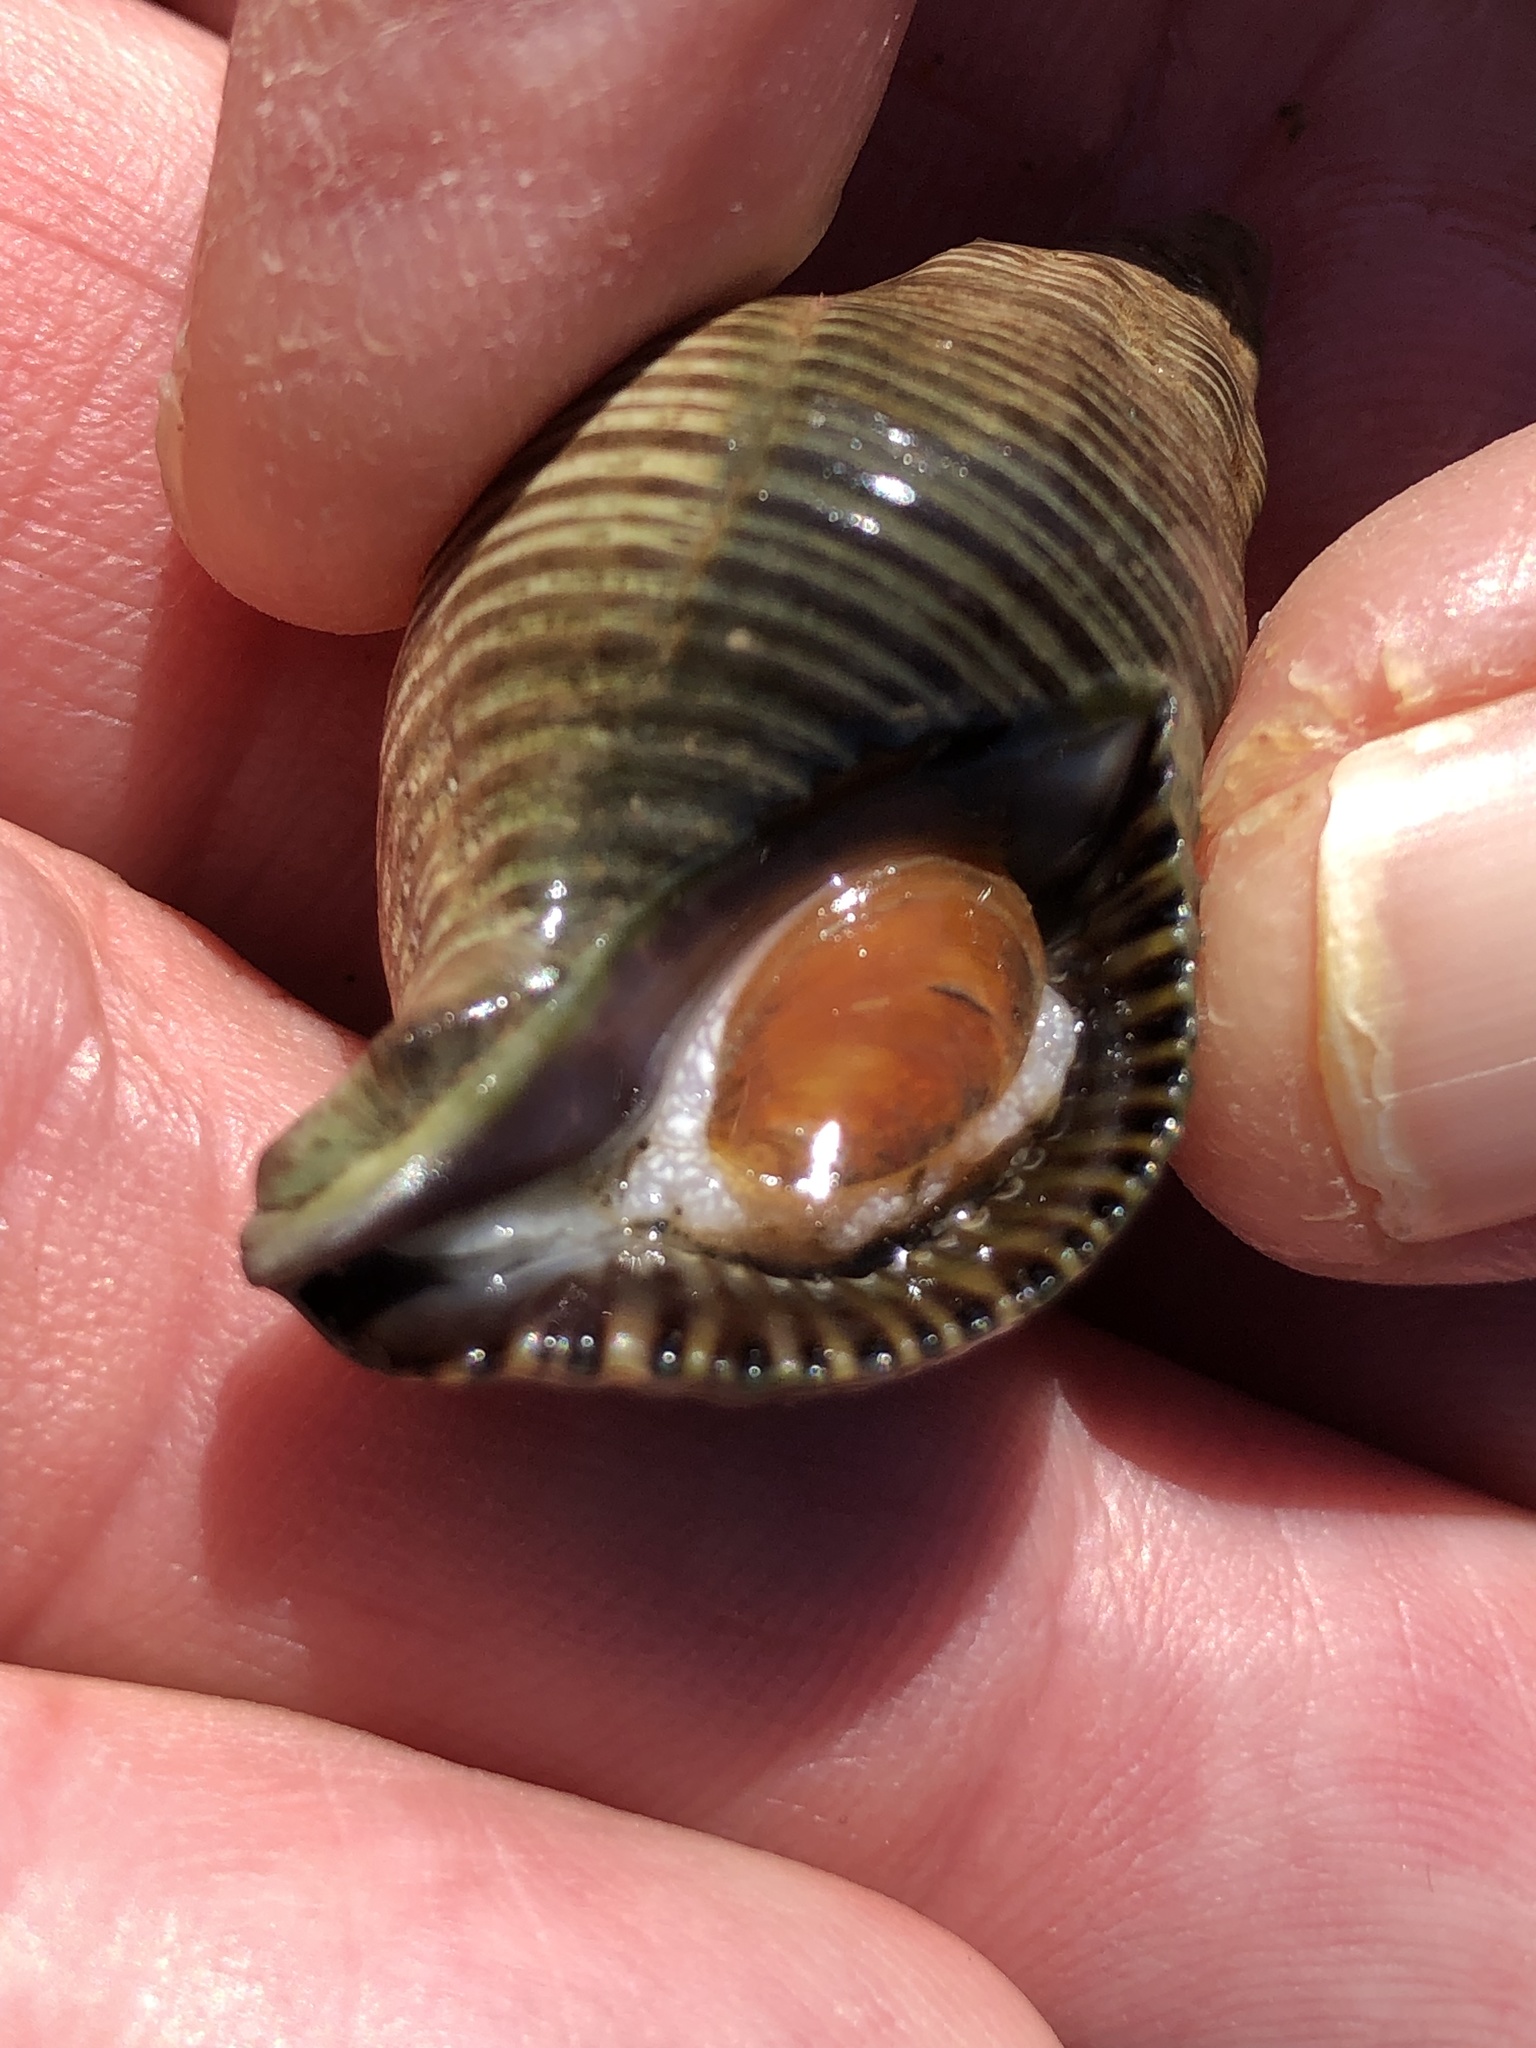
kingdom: Animalia
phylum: Mollusca
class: Gastropoda
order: Neogastropoda
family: Tudiclidae
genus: Lirabuccinum
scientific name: Lirabuccinum dirum
